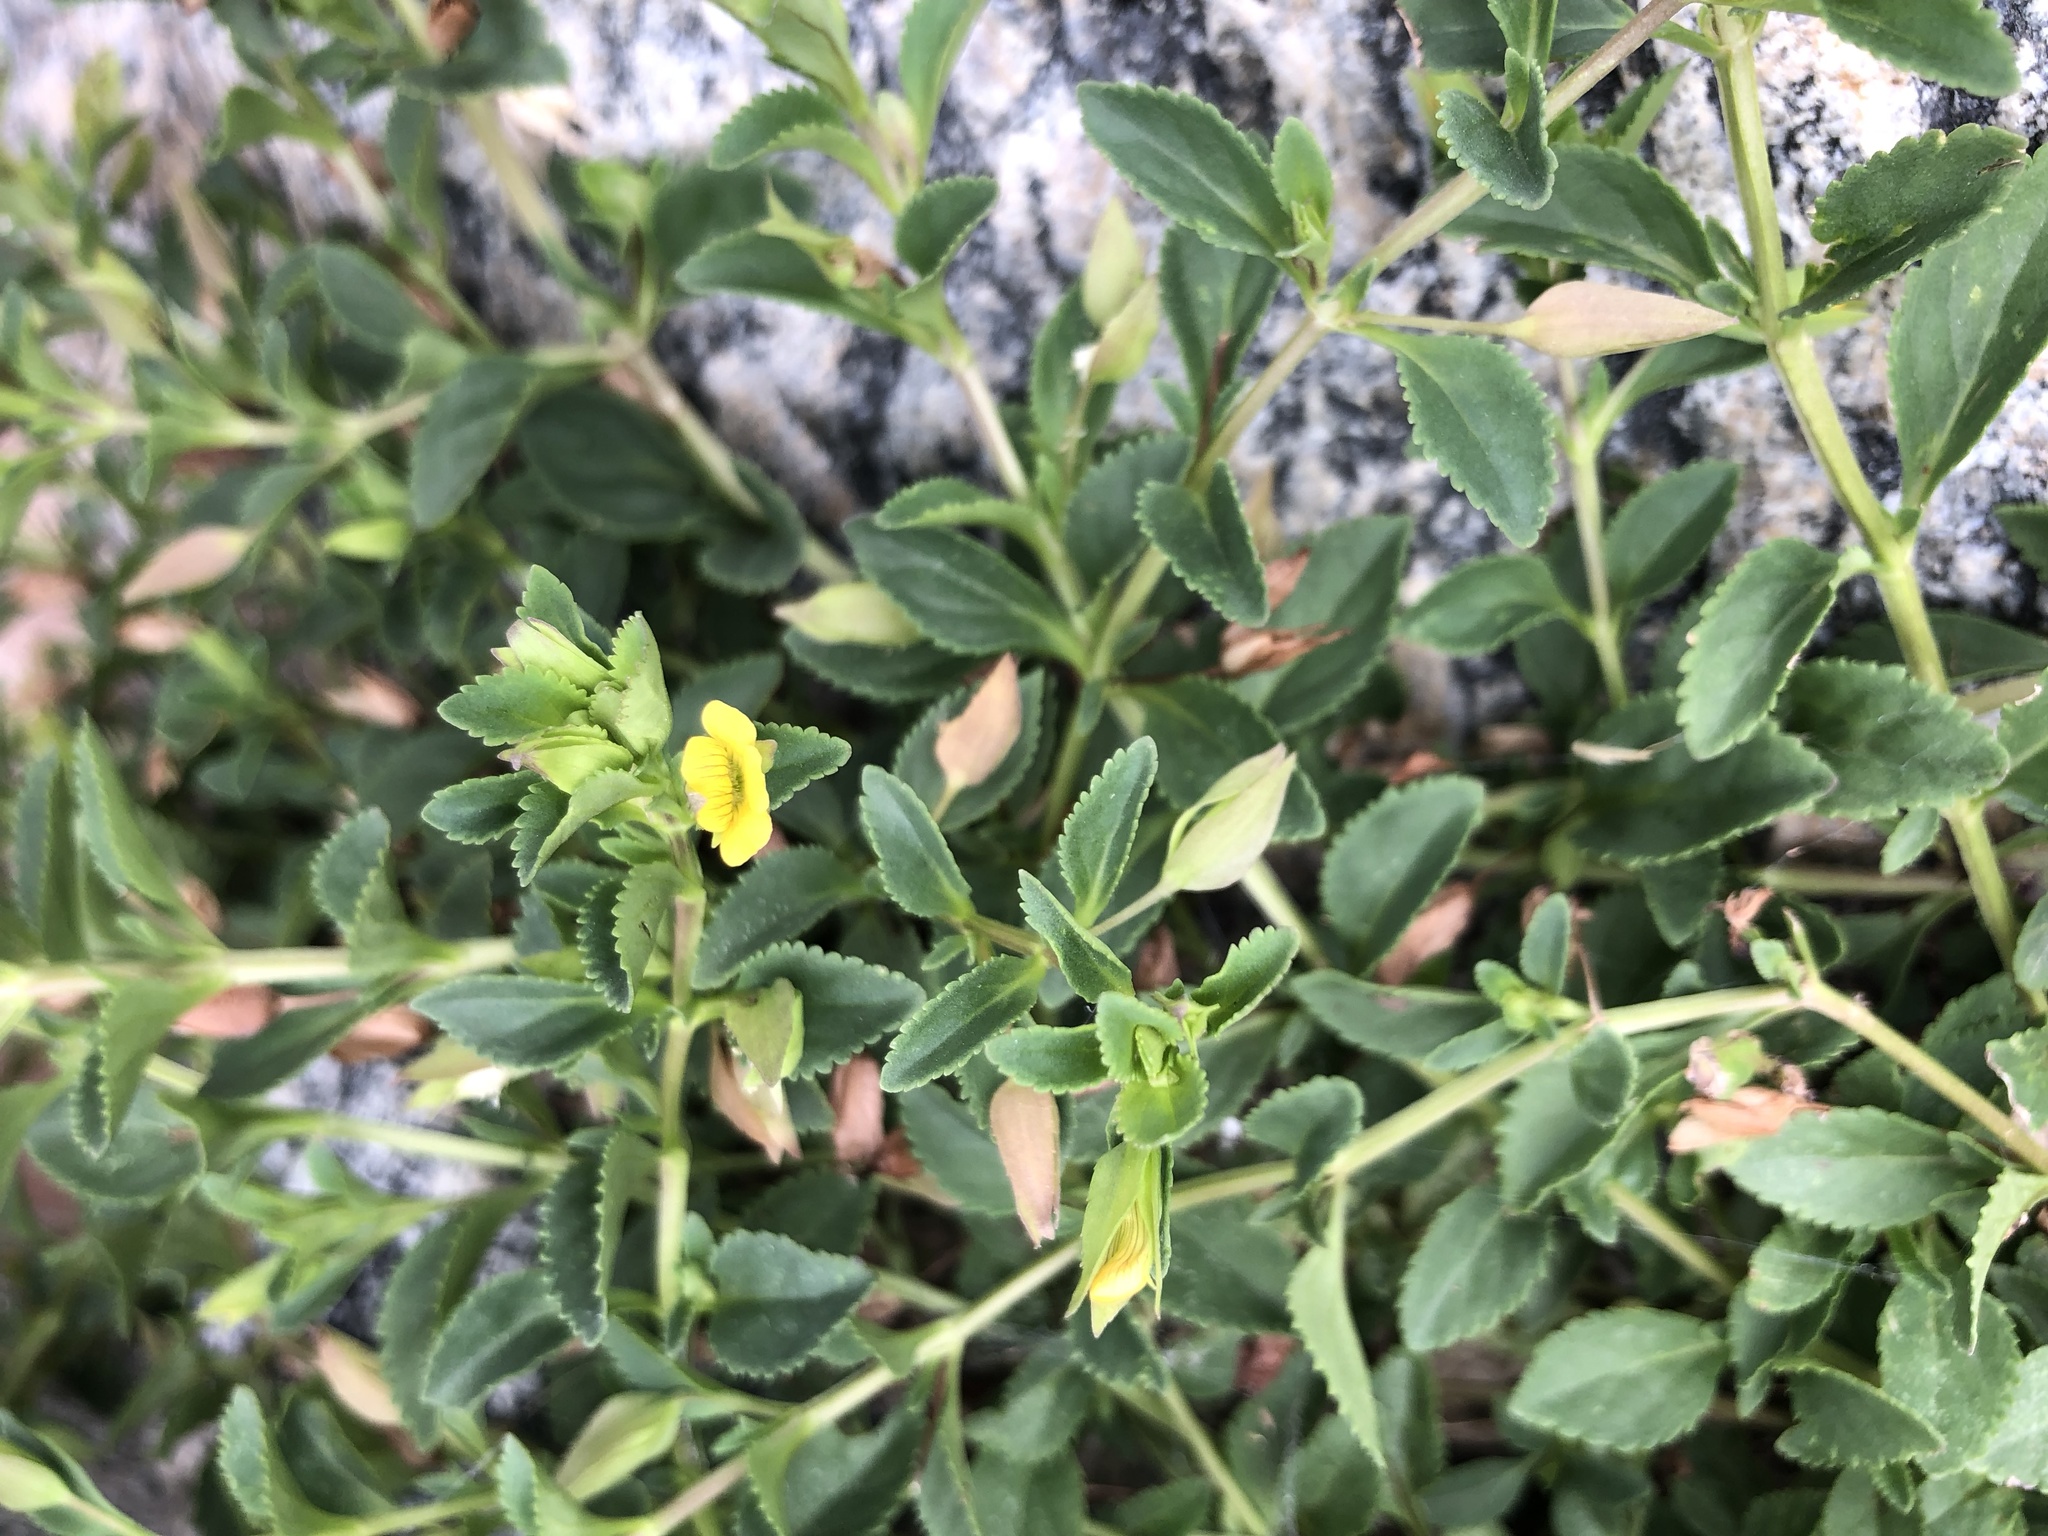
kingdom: Plantae
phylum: Tracheophyta
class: Magnoliopsida
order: Lamiales
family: Plantaginaceae
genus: Mecardonia
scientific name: Mecardonia procumbens
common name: Baby jump-up
